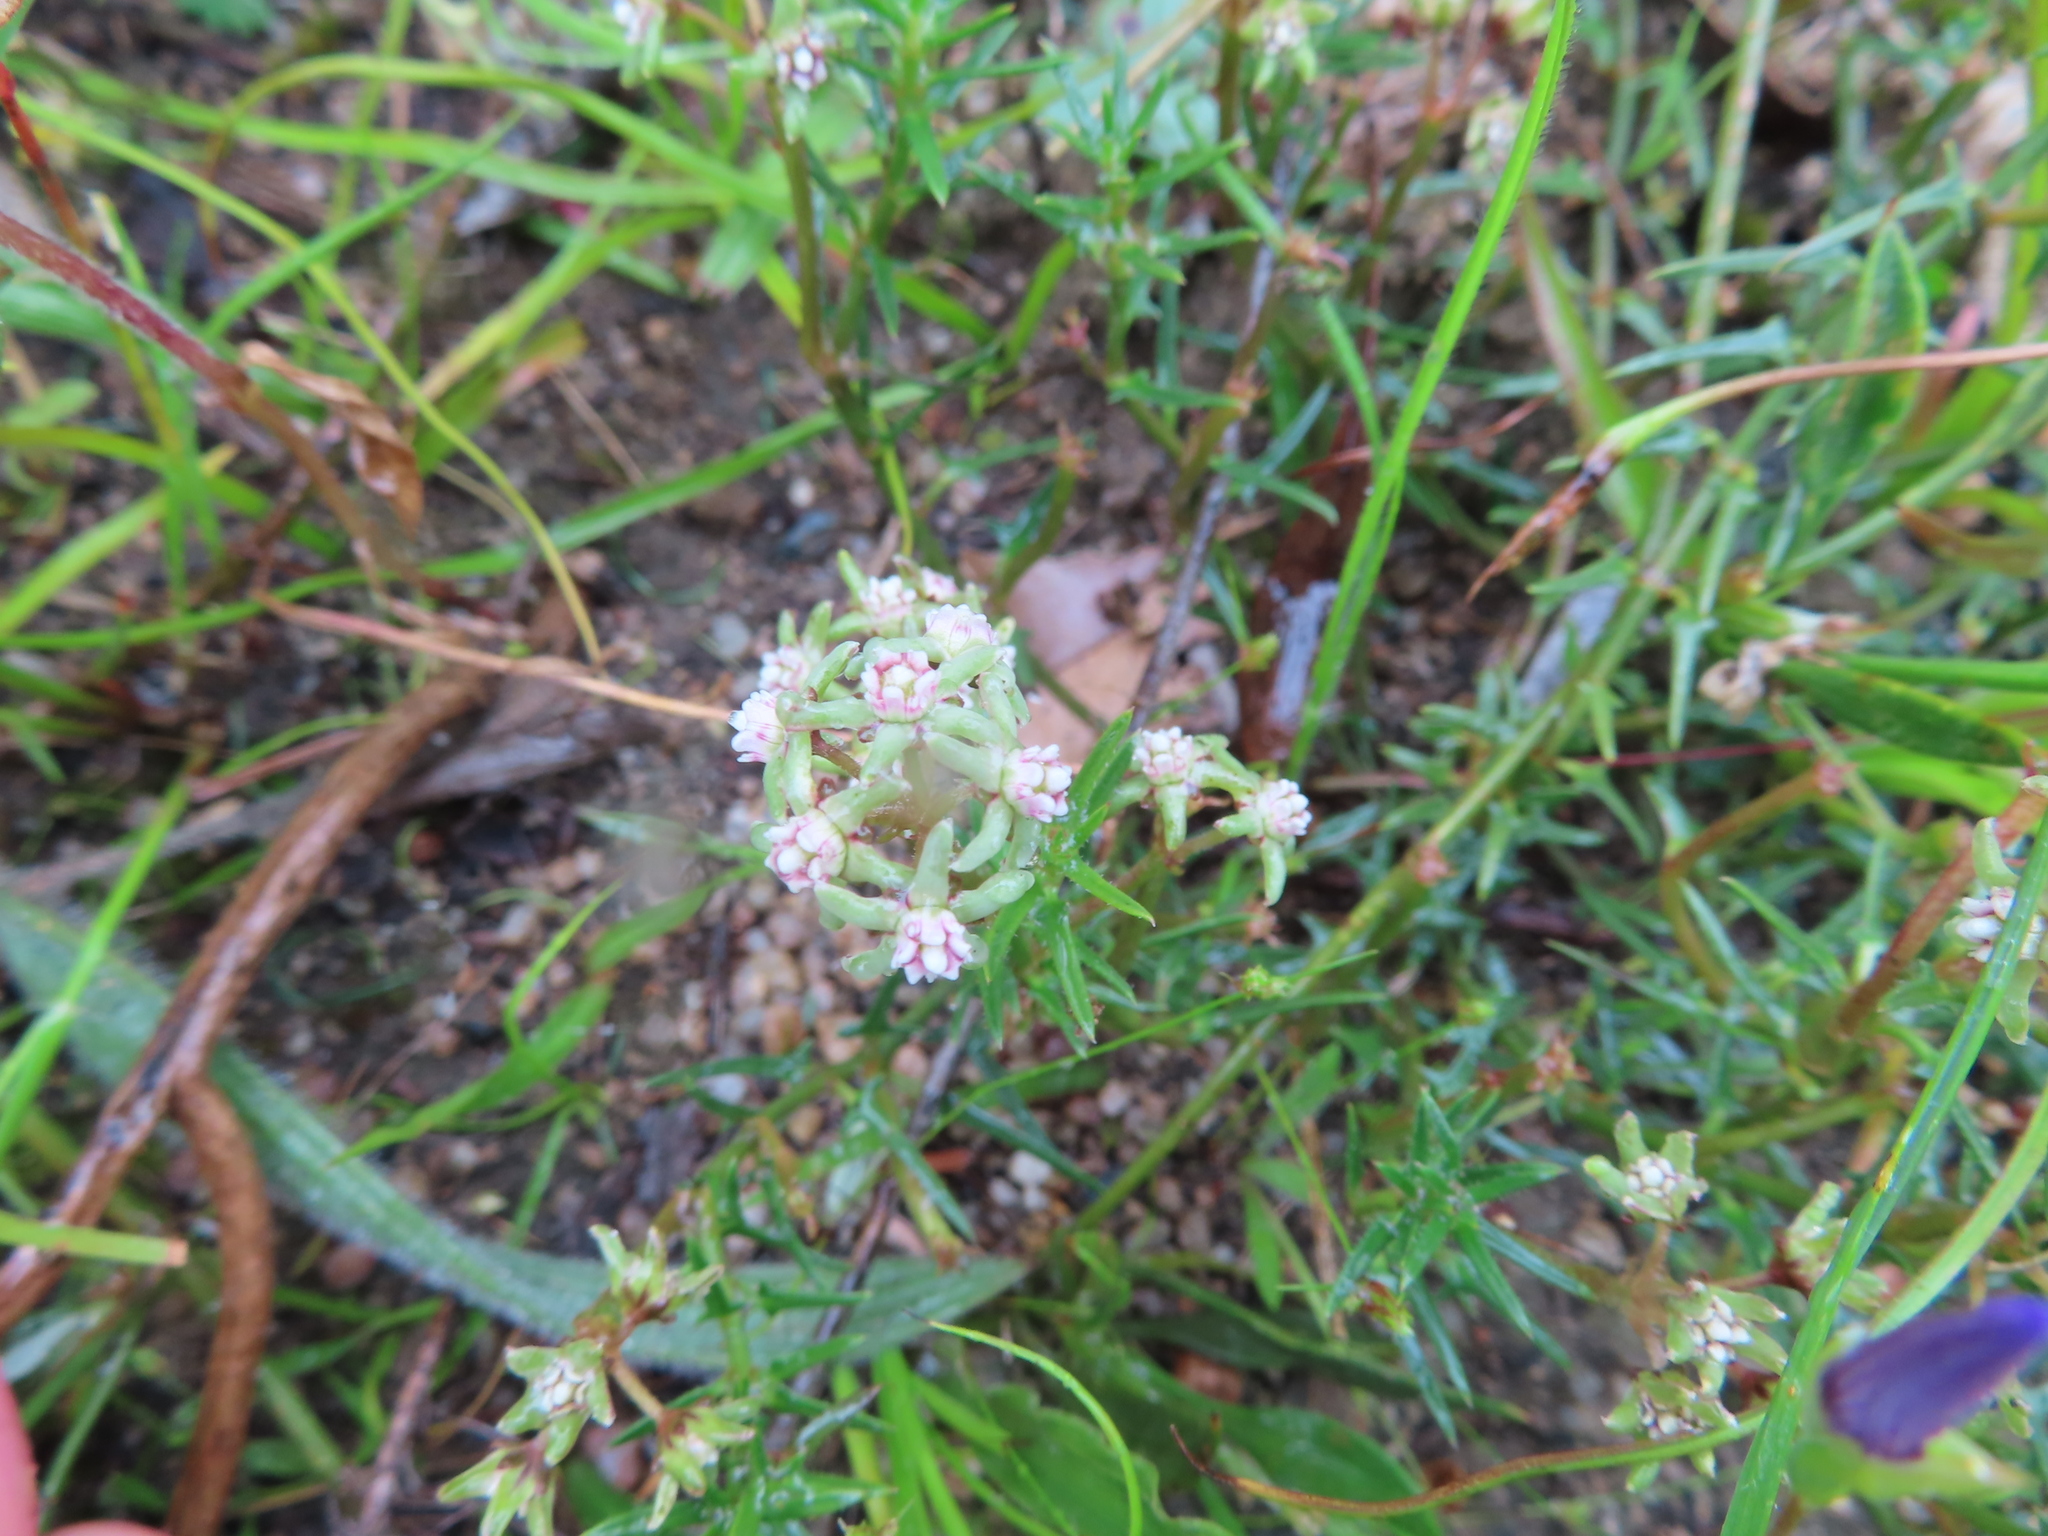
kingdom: Plantae
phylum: Tracheophyta
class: Magnoliopsida
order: Gentianales
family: Apocynaceae
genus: Eustegia
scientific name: Eustegia minuta
